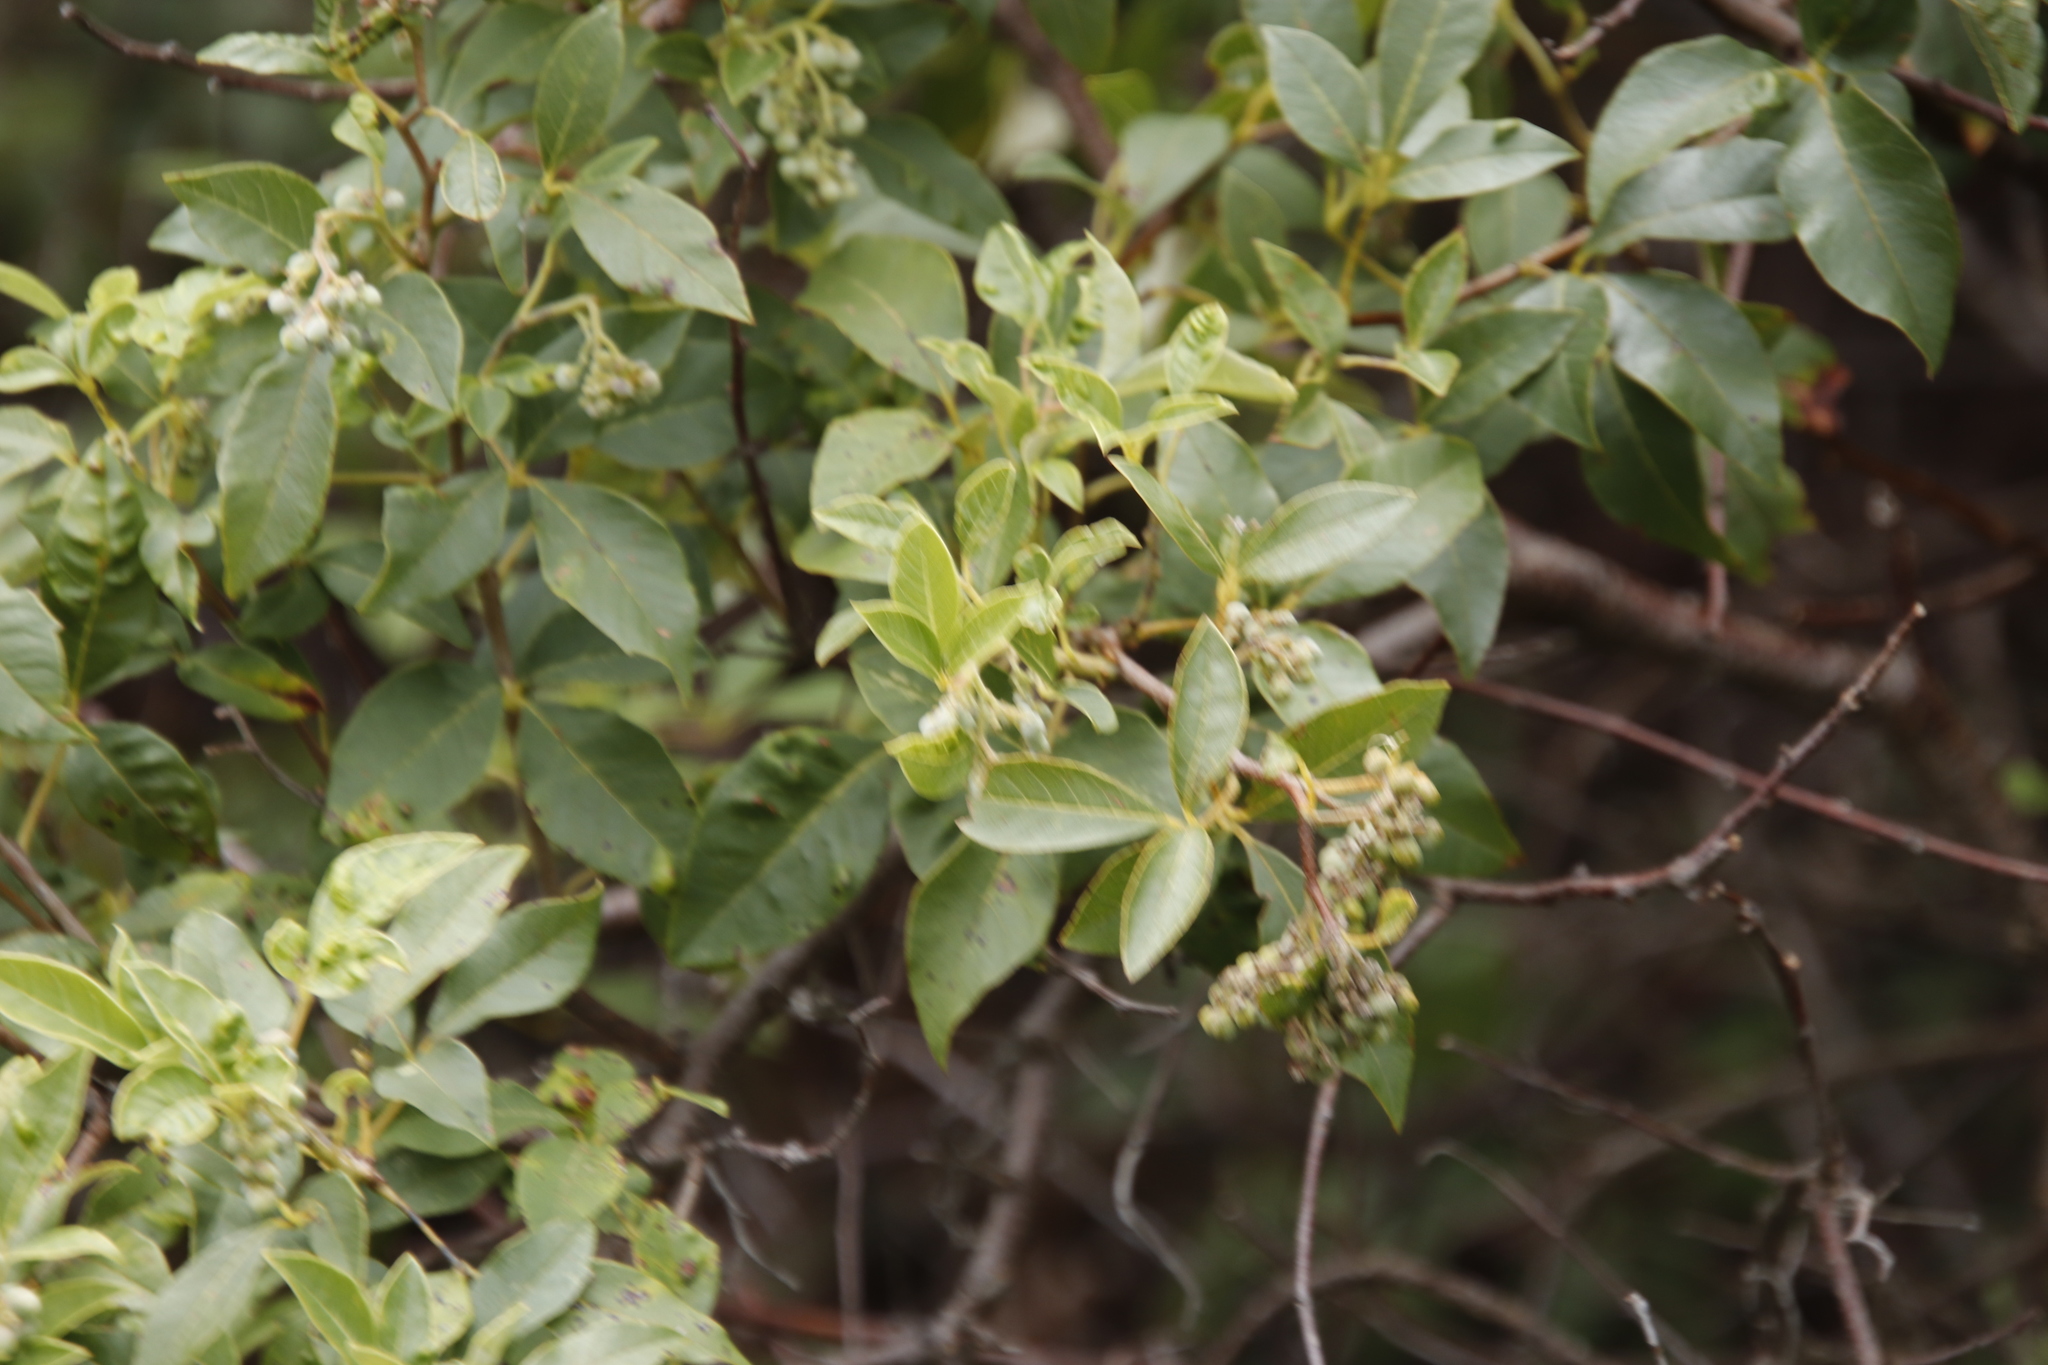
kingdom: Plantae
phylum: Tracheophyta
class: Magnoliopsida
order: Sapindales
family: Anacardiaceae
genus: Searsia
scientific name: Searsia tomentosa
